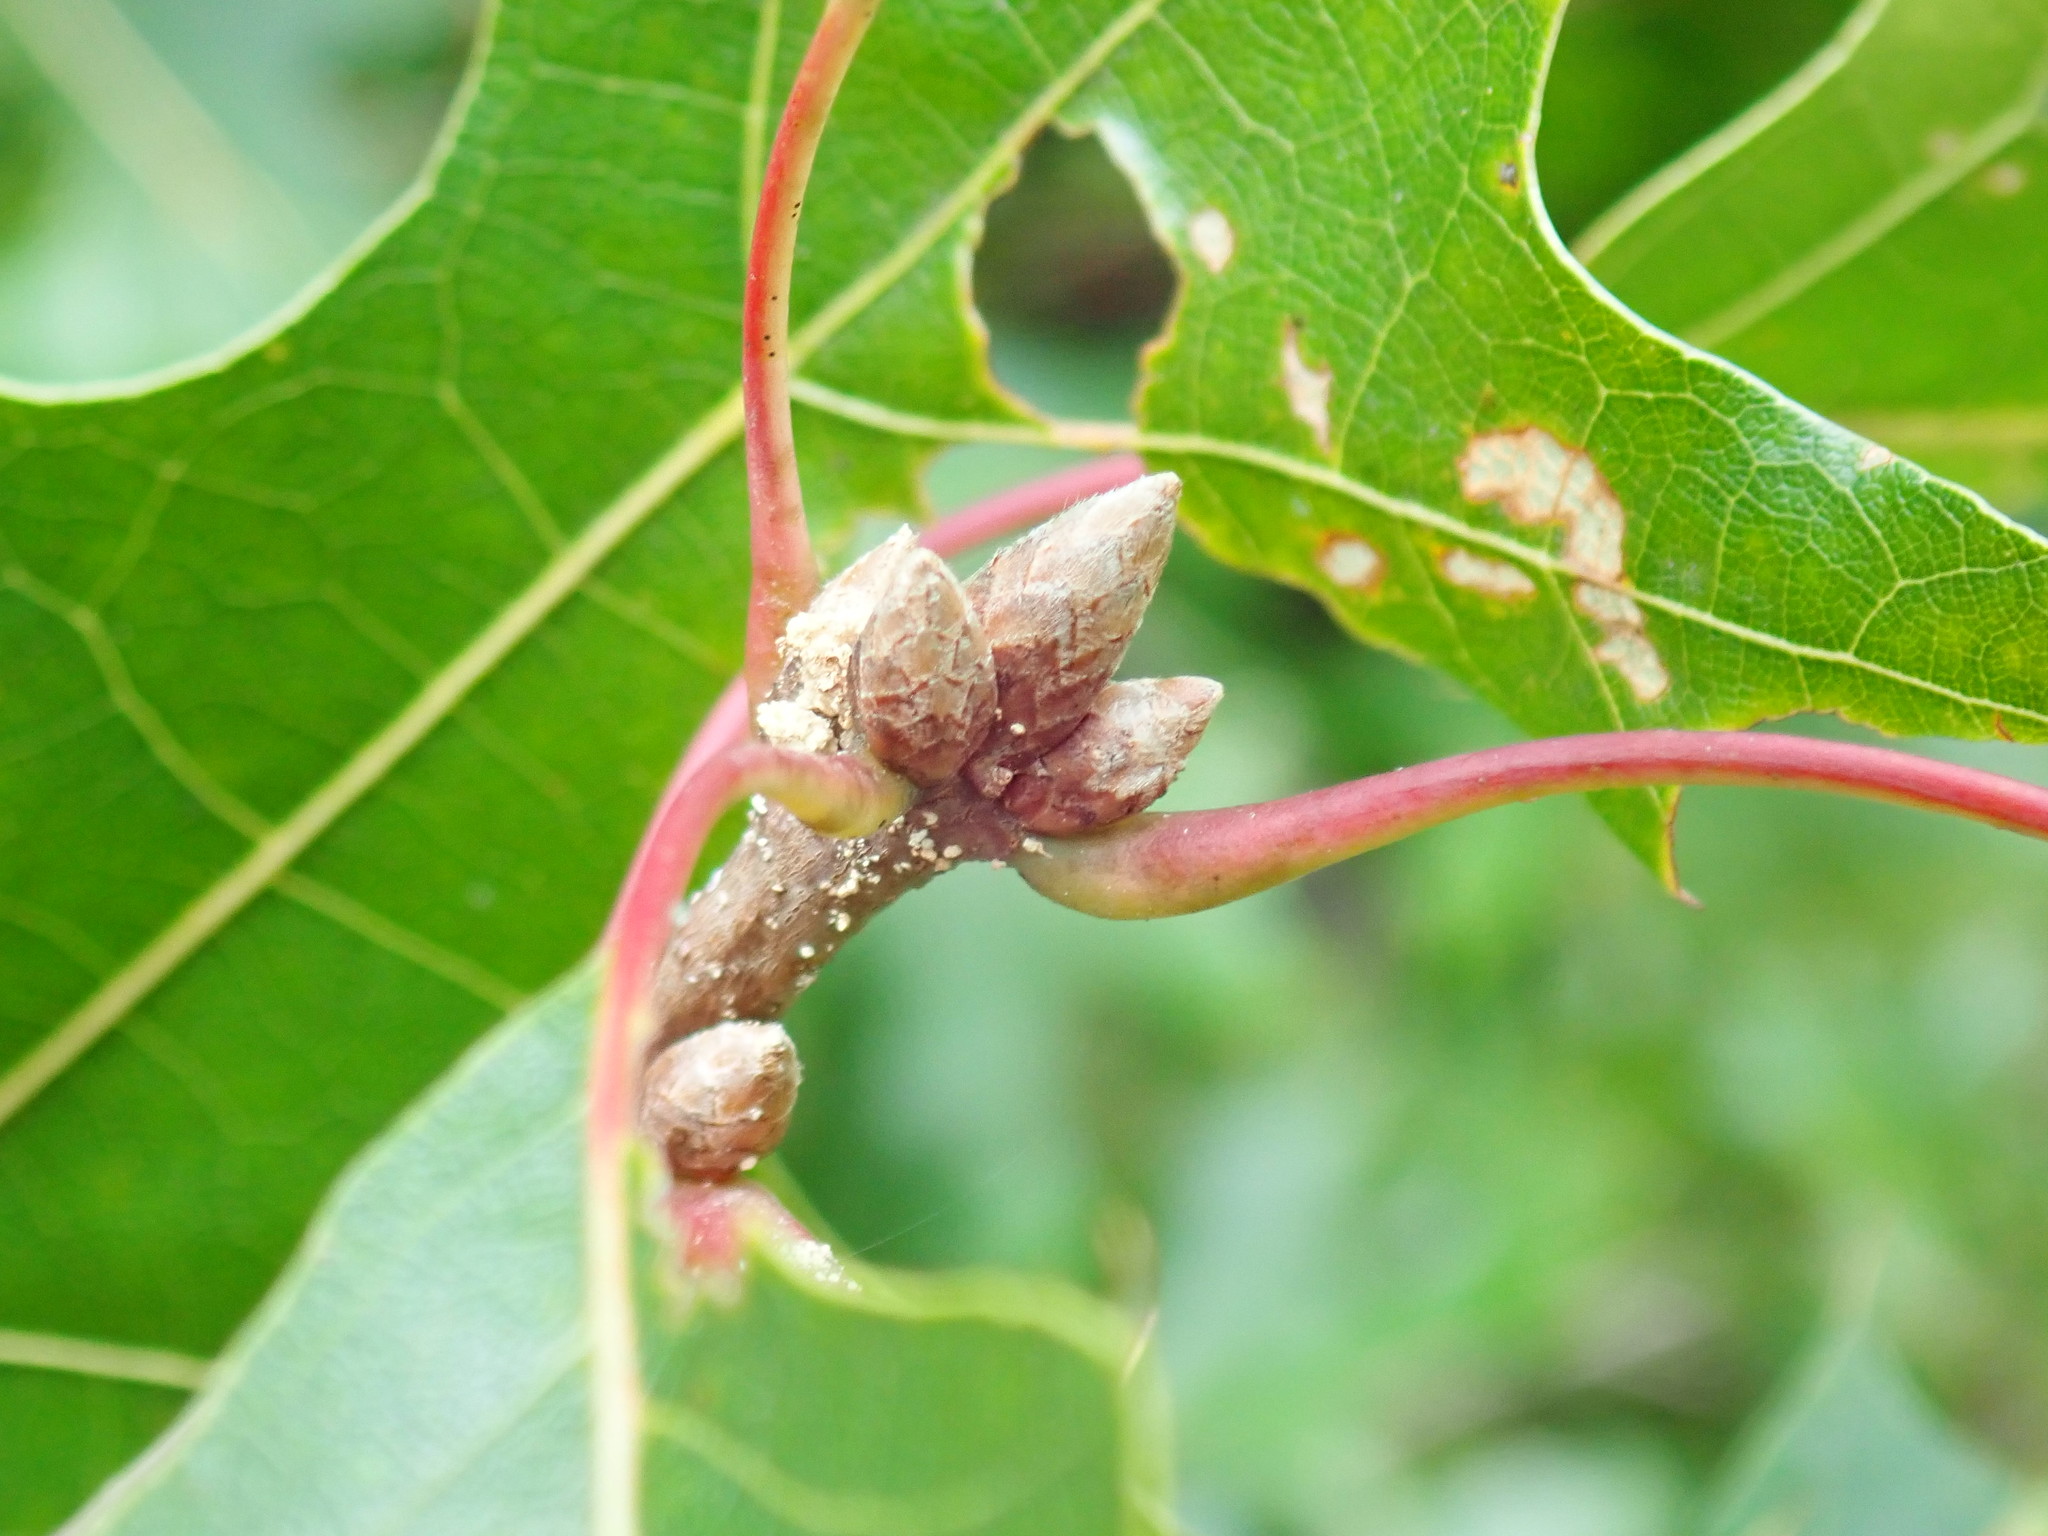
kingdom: Plantae
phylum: Tracheophyta
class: Magnoliopsida
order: Fagales
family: Fagaceae
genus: Quercus
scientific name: Quercus coccinea
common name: Scarlet oak
